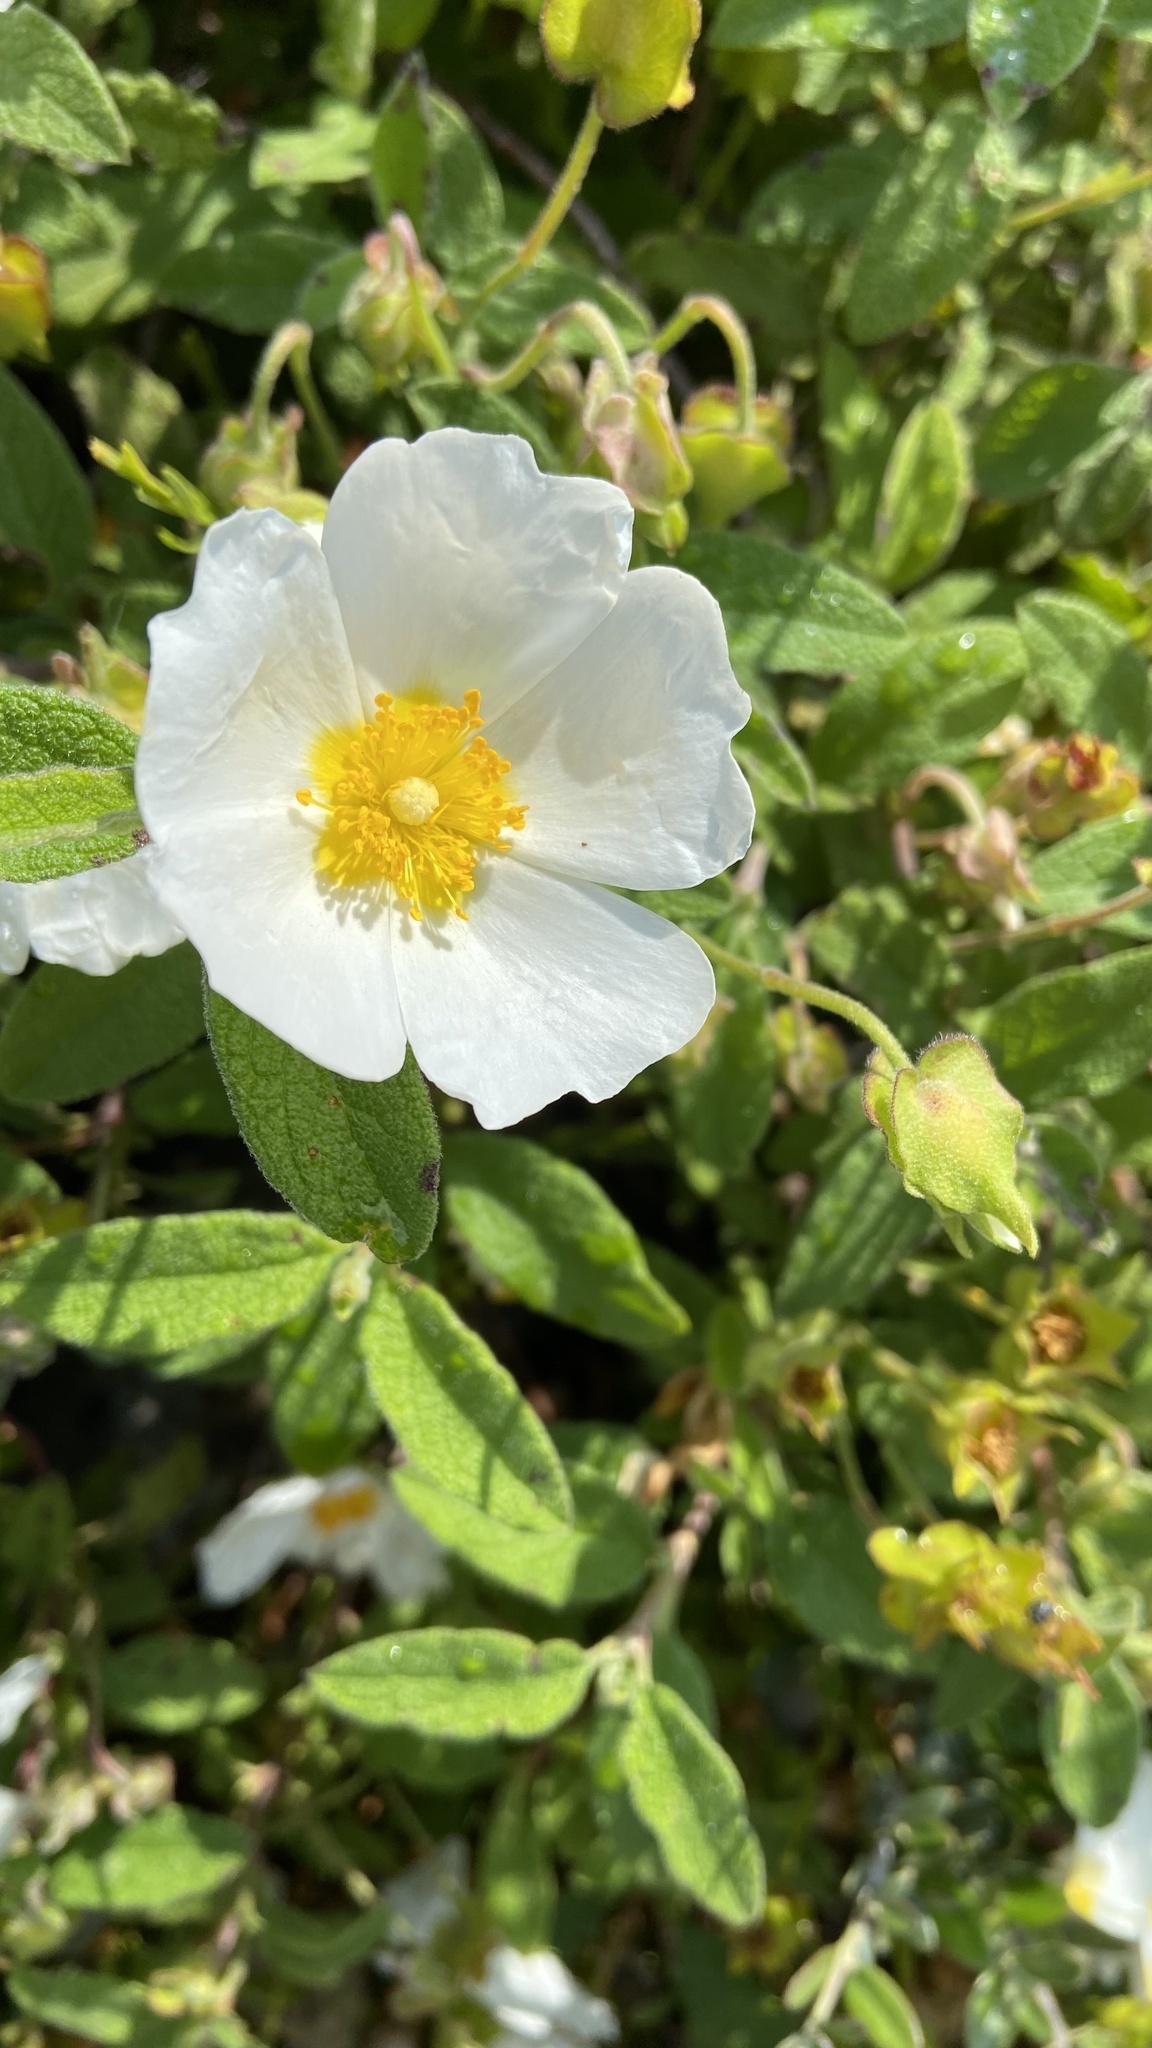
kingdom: Plantae
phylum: Tracheophyta
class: Magnoliopsida
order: Malvales
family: Cistaceae
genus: Cistus
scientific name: Cistus salviifolius
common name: Salvia cistus
